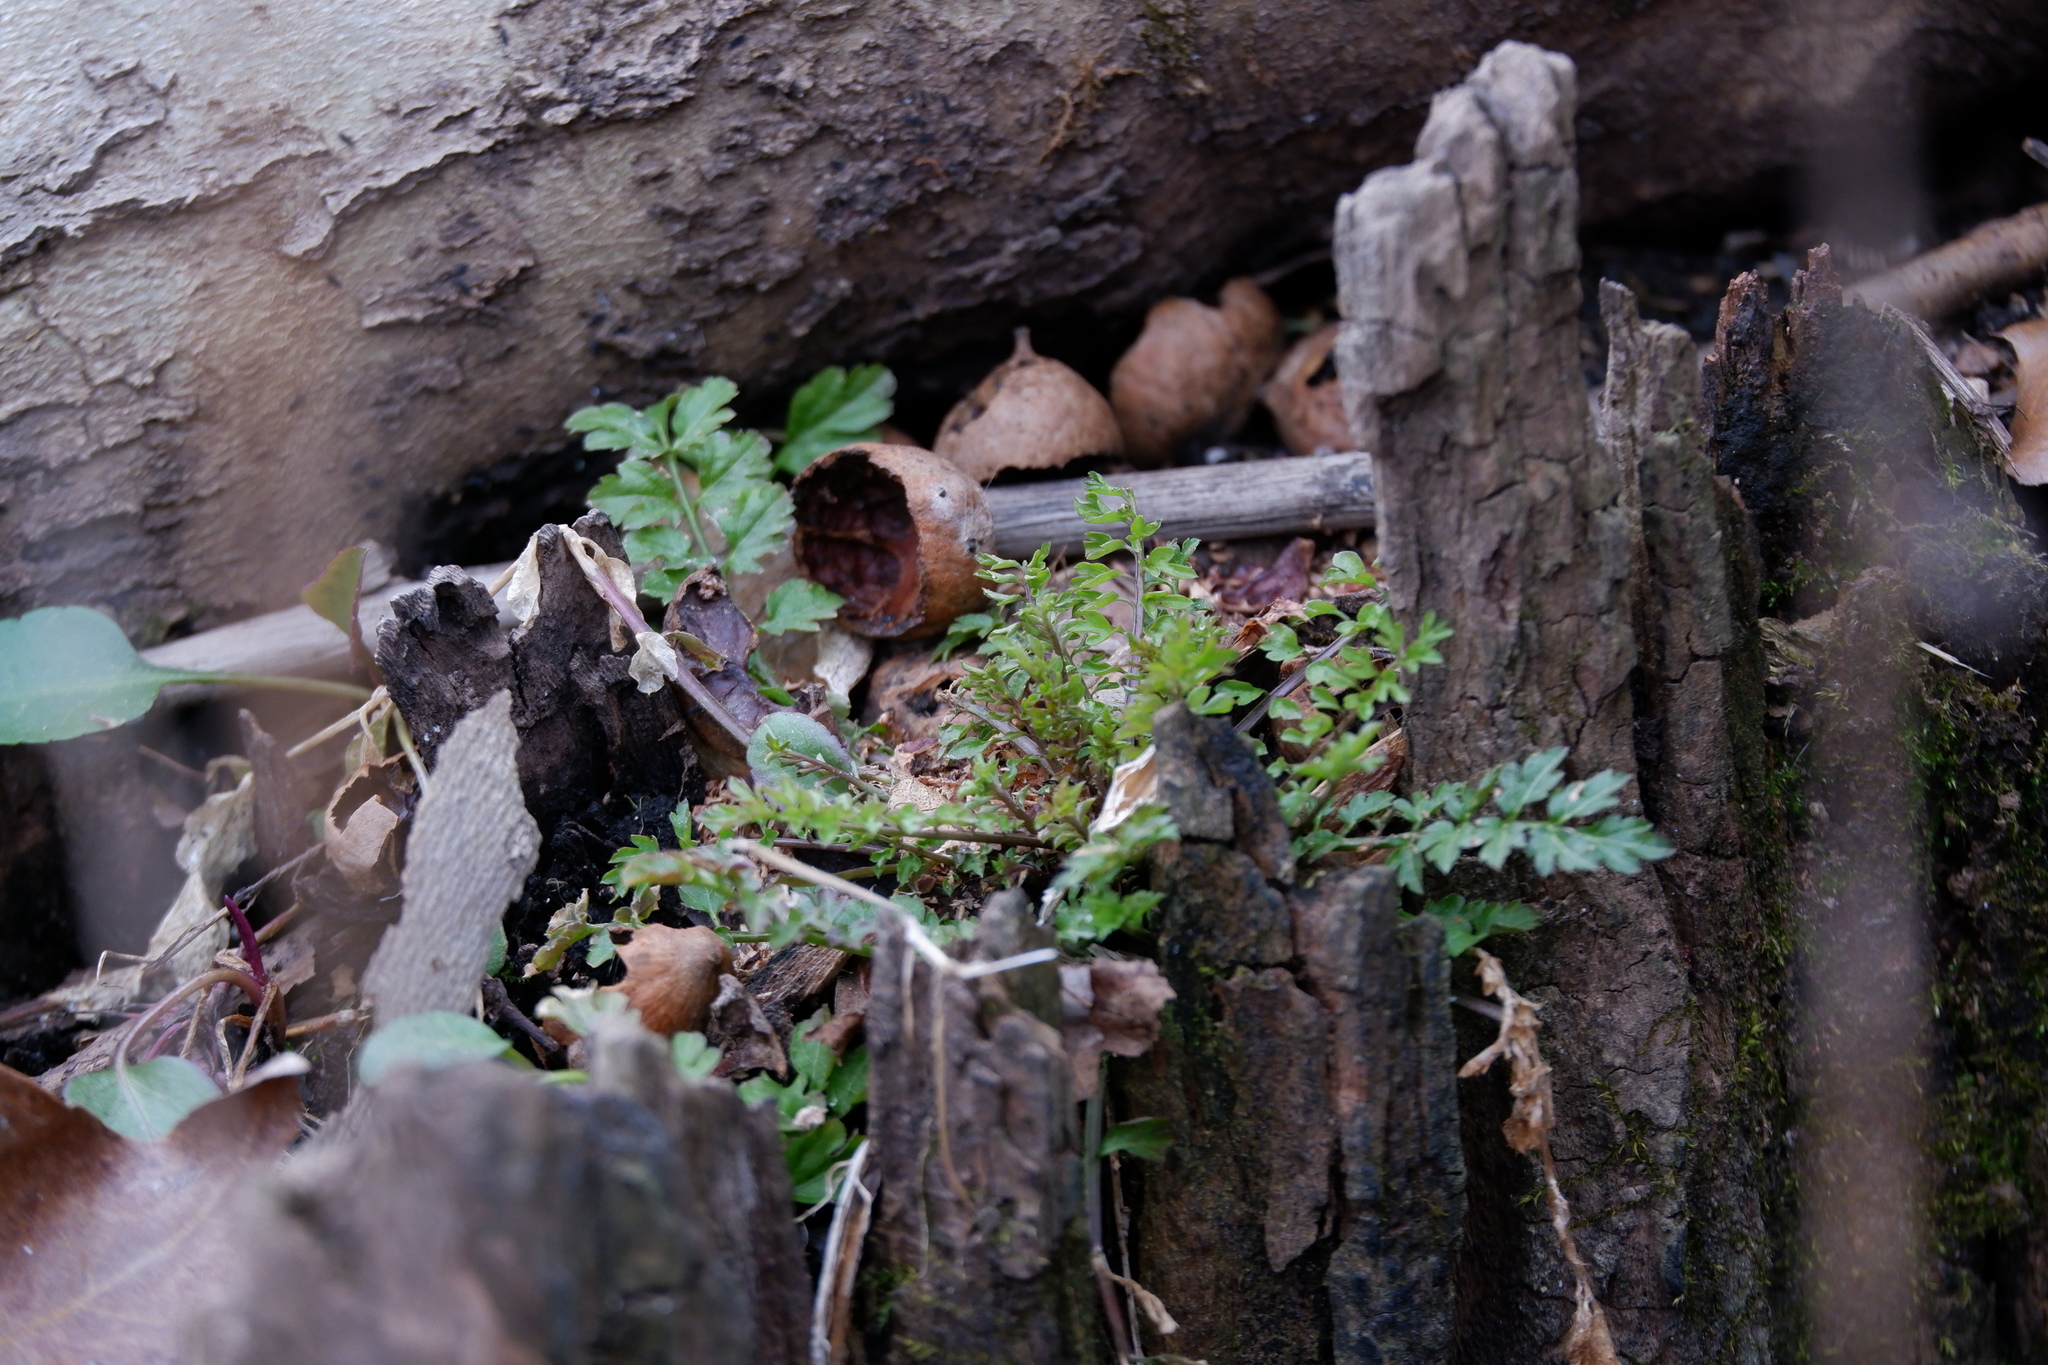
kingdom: Plantae
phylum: Tracheophyta
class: Magnoliopsida
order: Brassicales
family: Brassicaceae
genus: Cardamine
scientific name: Cardamine impatiens
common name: Narrow-leaved bitter-cress
